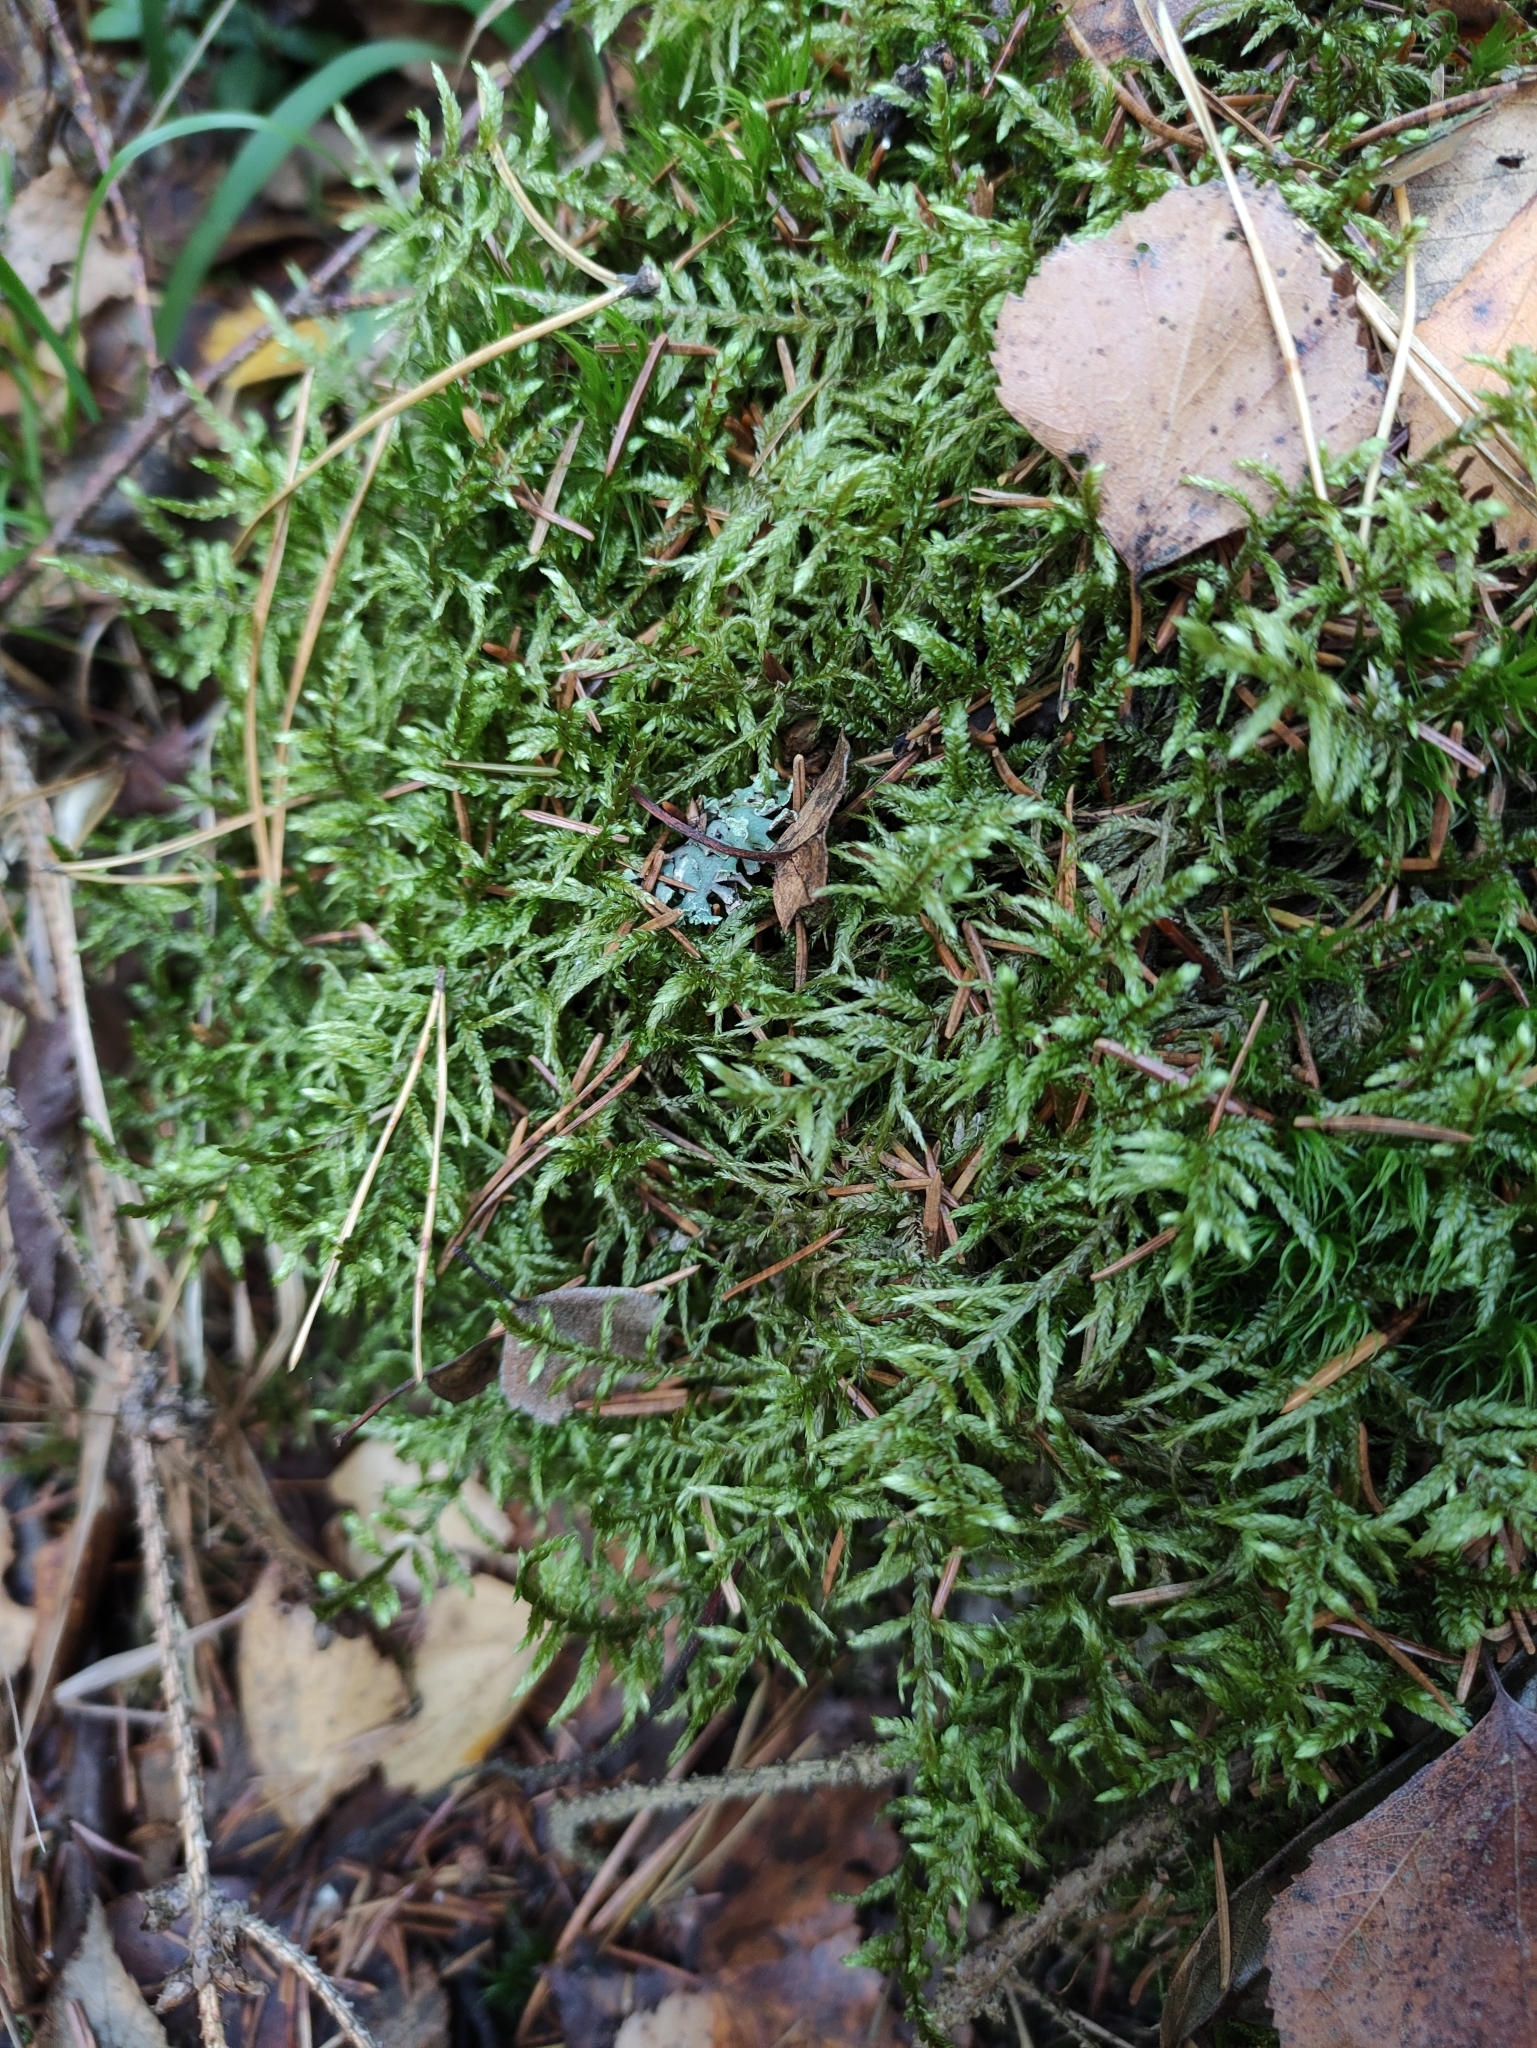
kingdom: Plantae
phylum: Bryophyta
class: Bryopsida
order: Hypnales
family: Hylocomiaceae
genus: Pleurozium
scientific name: Pleurozium schreberi
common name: Red-stemmed feather moss
